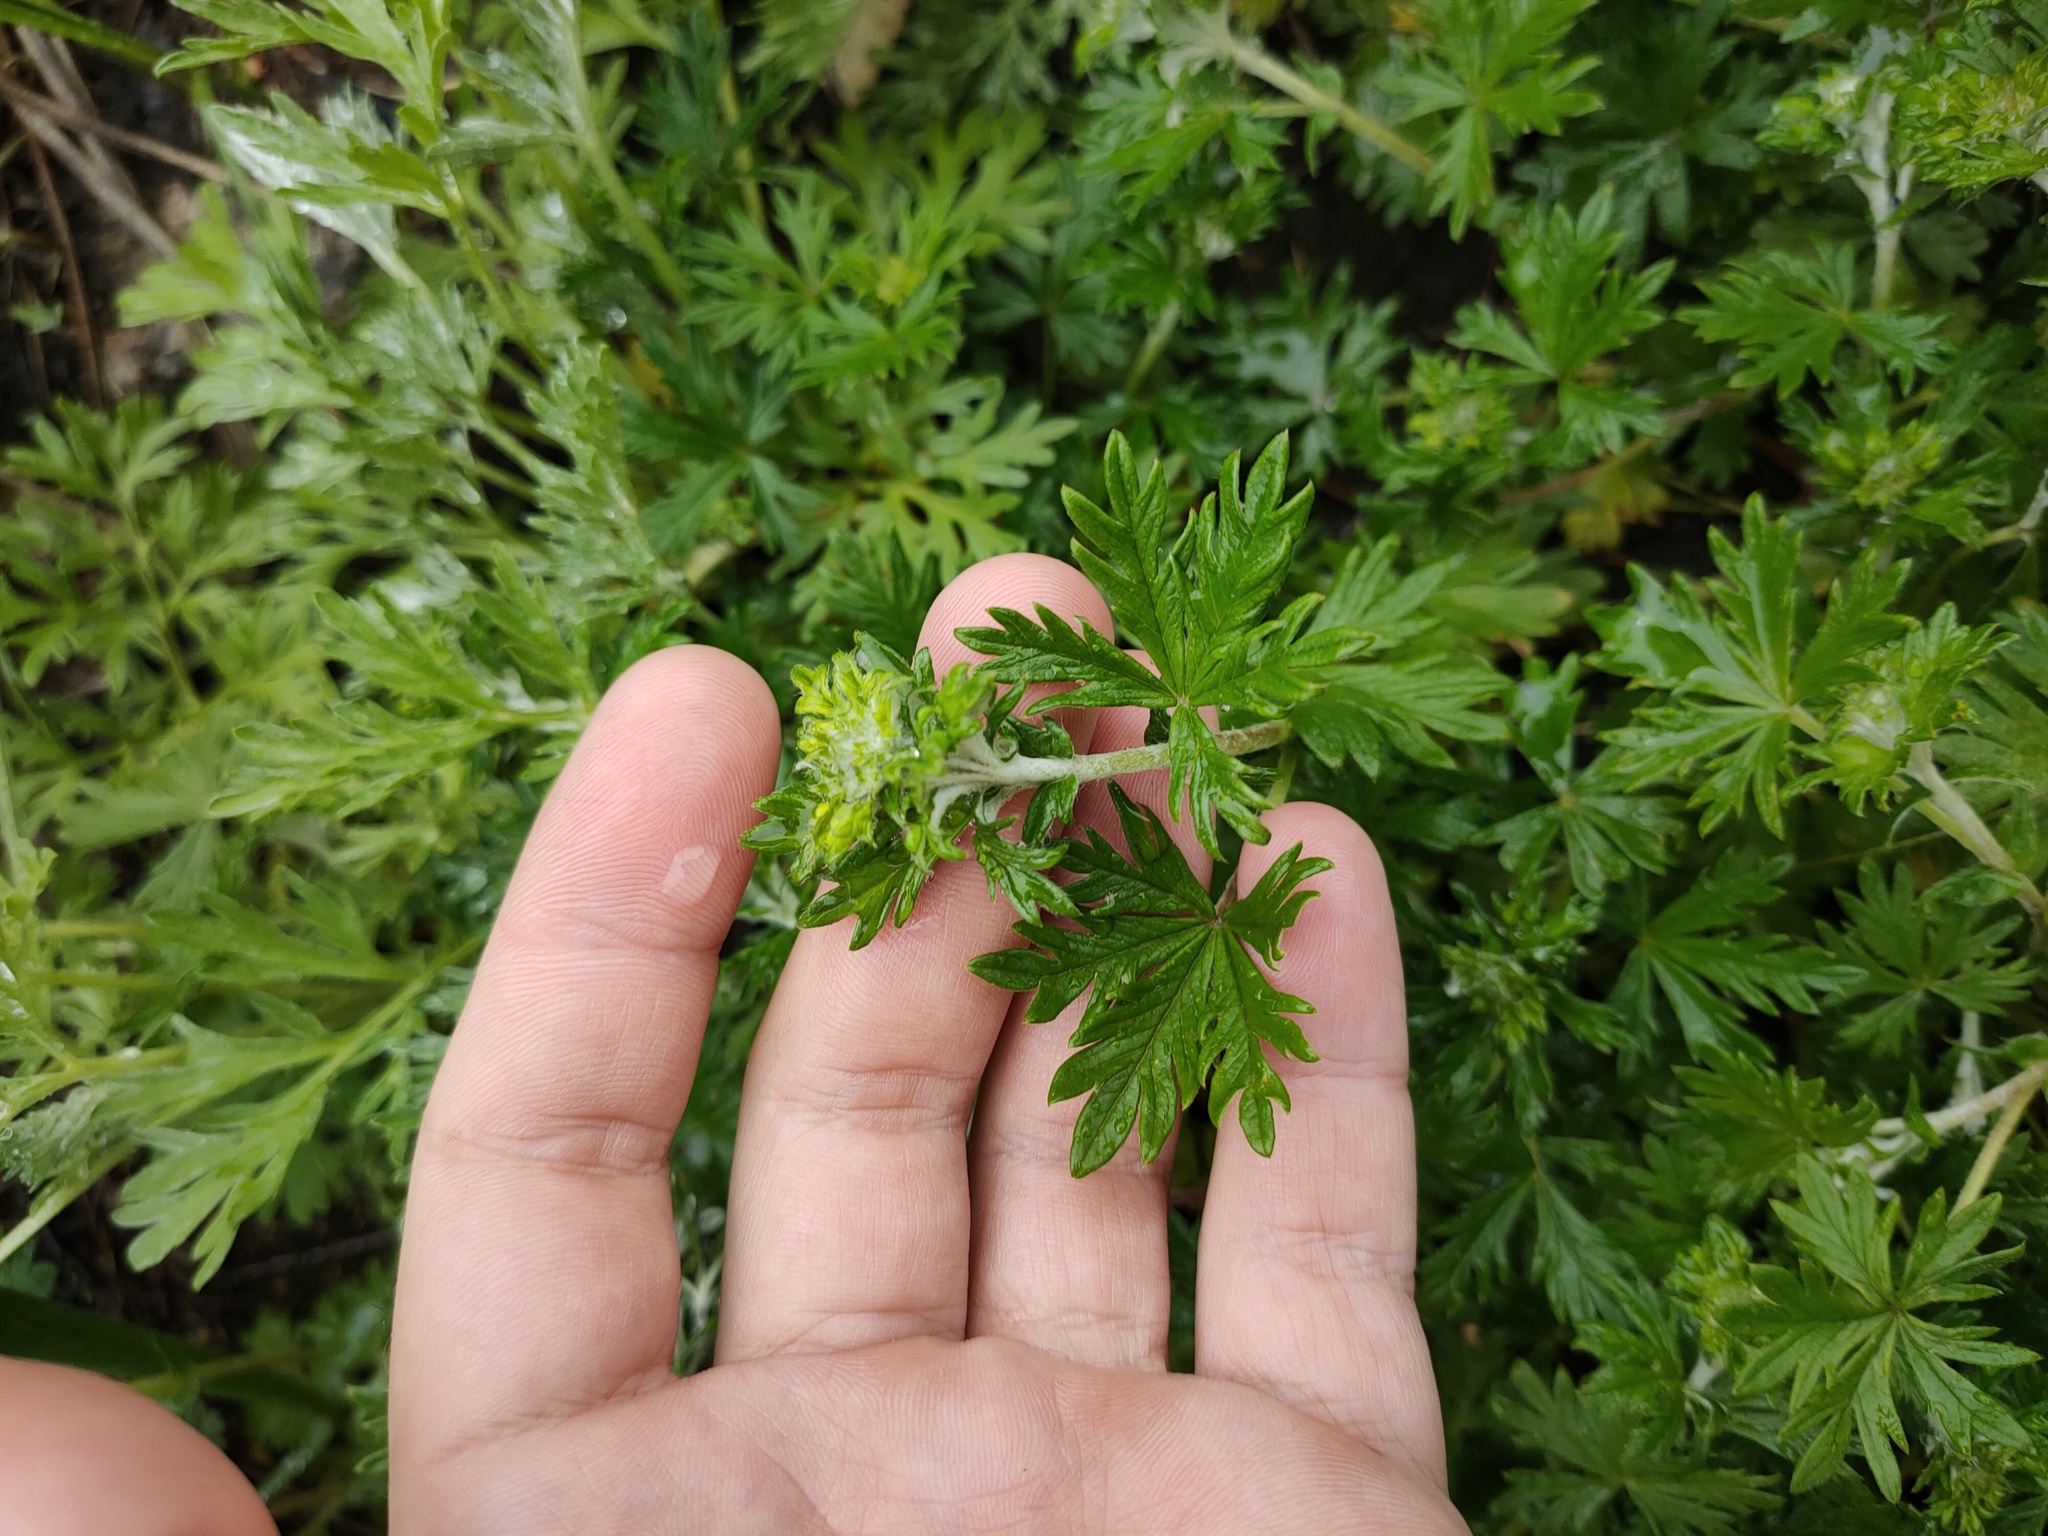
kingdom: Plantae
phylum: Tracheophyta
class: Magnoliopsida
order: Rosales
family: Rosaceae
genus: Potentilla
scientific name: Potentilla argentea
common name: Hoary cinquefoil
